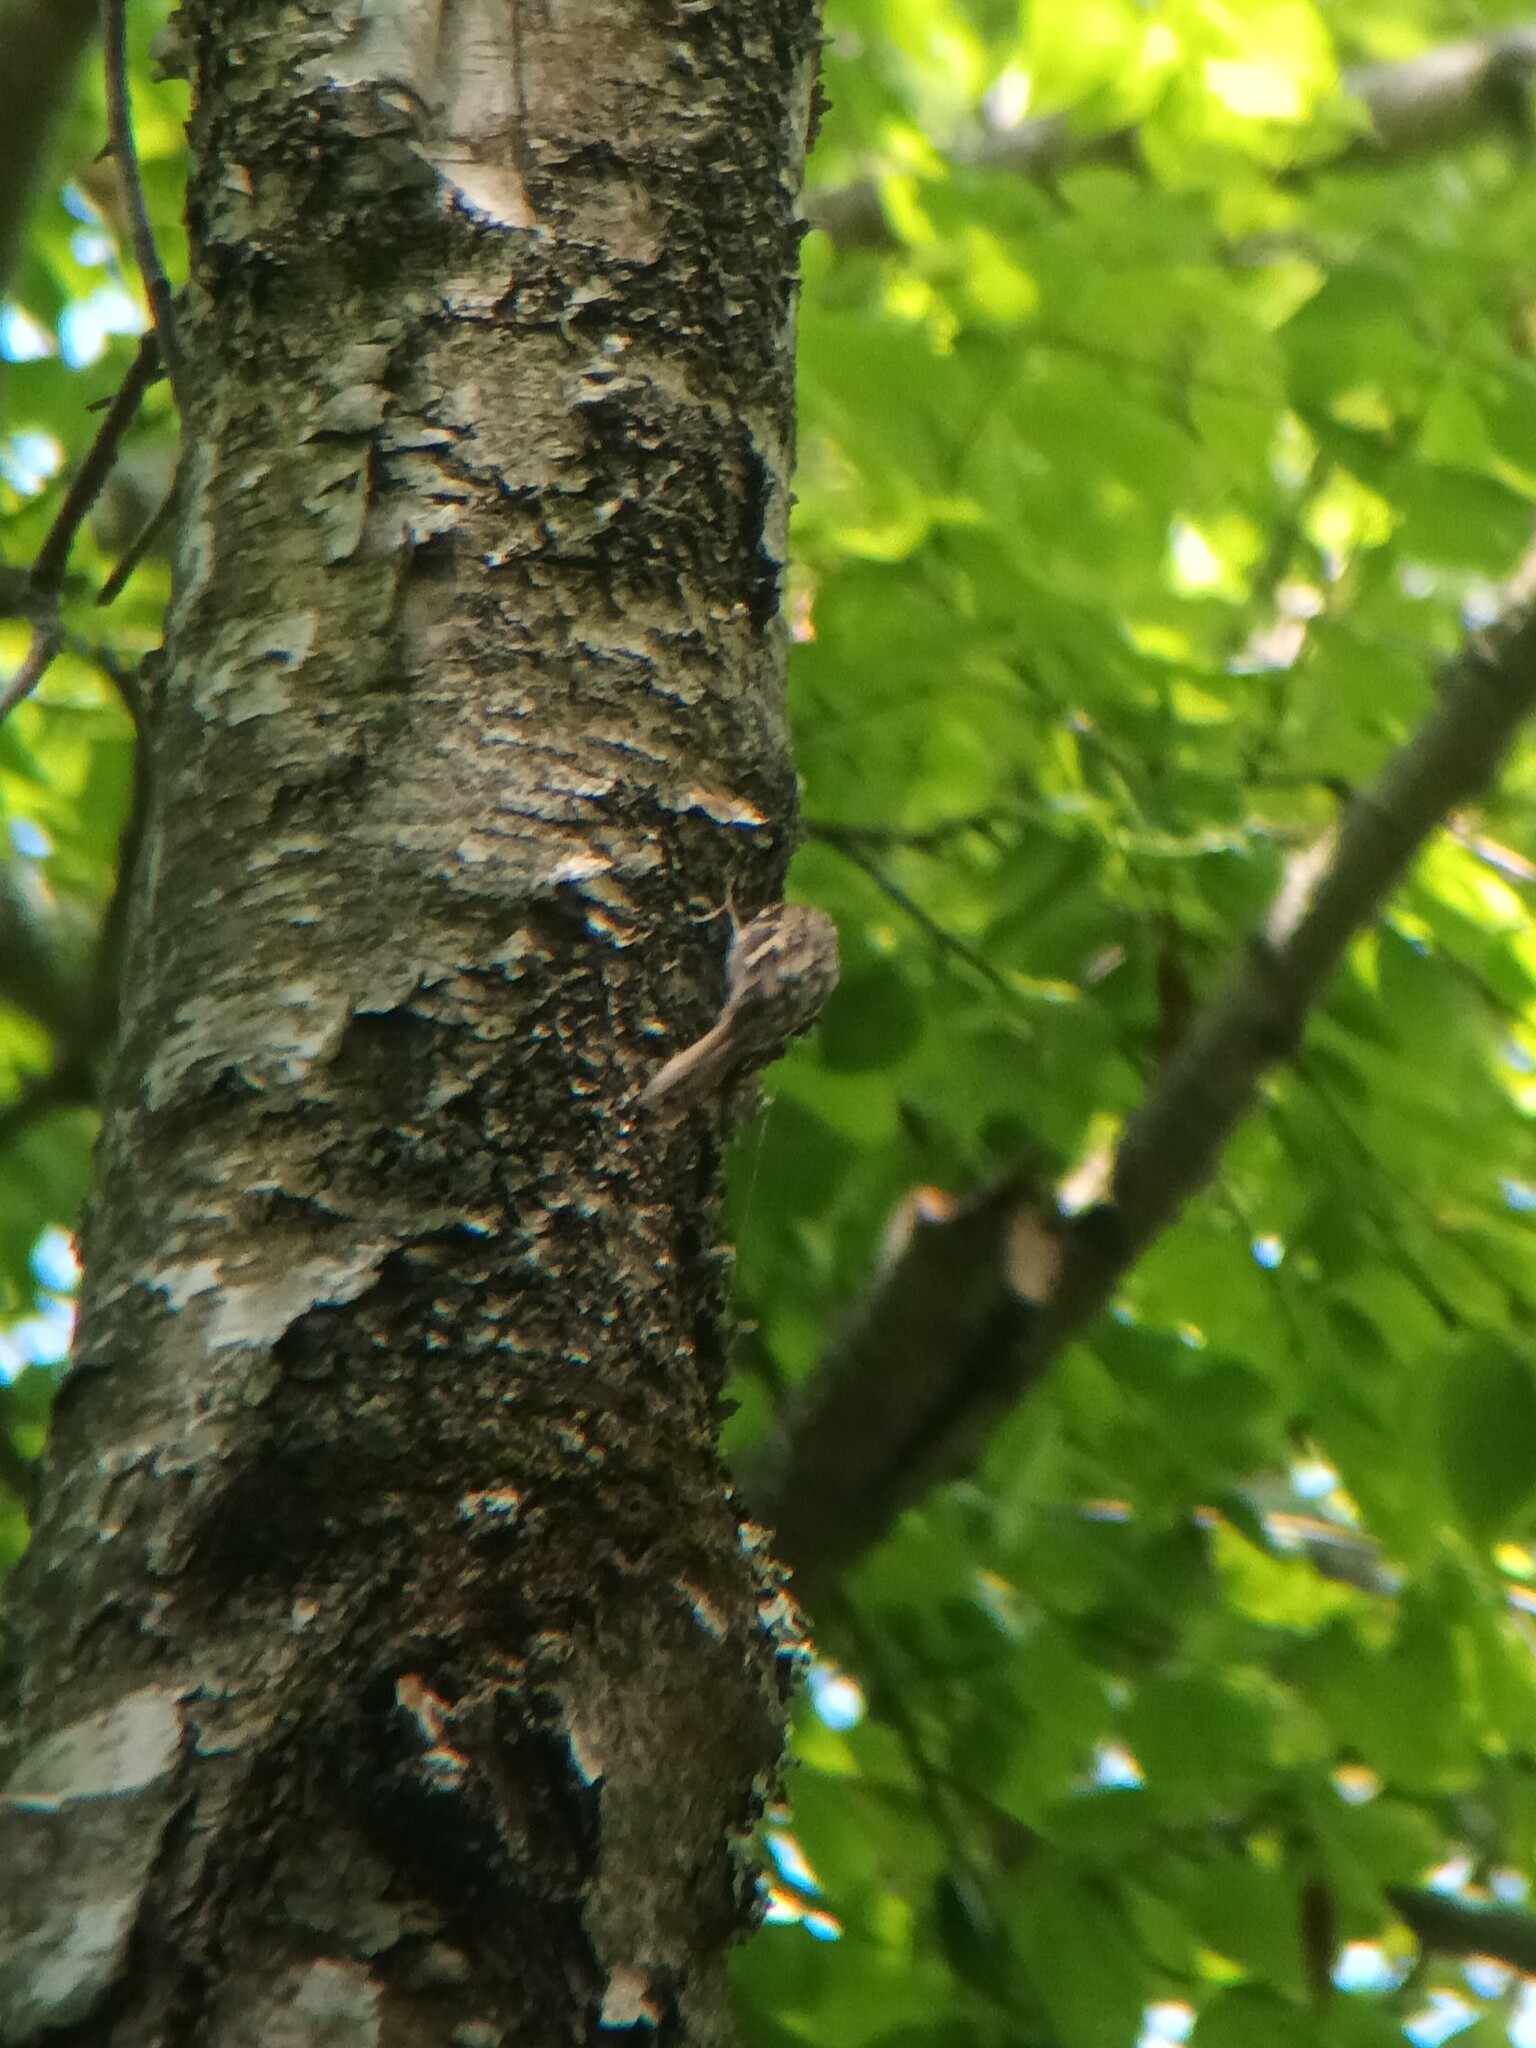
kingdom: Animalia
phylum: Chordata
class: Aves
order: Passeriformes
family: Certhiidae
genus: Certhia
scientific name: Certhia americana
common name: Brown creeper
